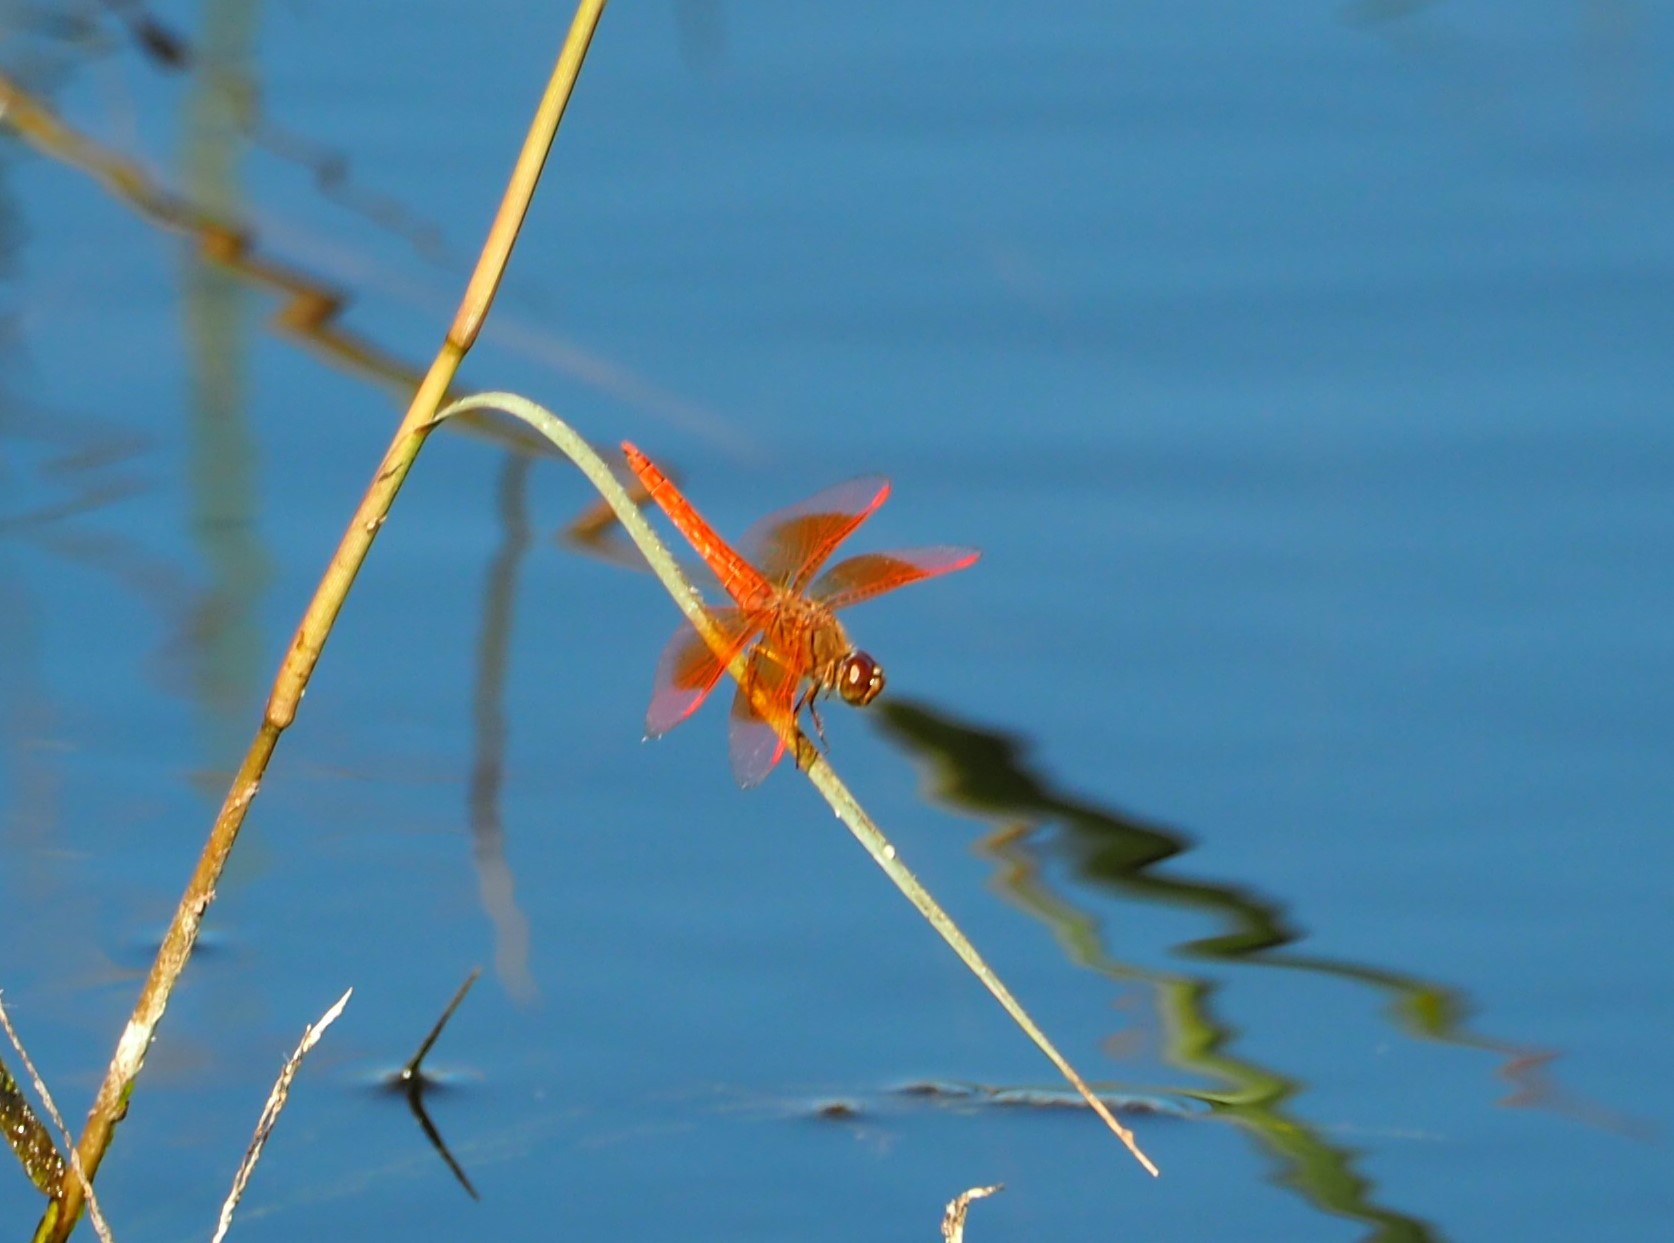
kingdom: Animalia
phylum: Arthropoda
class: Insecta
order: Odonata
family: Libellulidae
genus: Brachythemis
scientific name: Brachythemis contaminata
